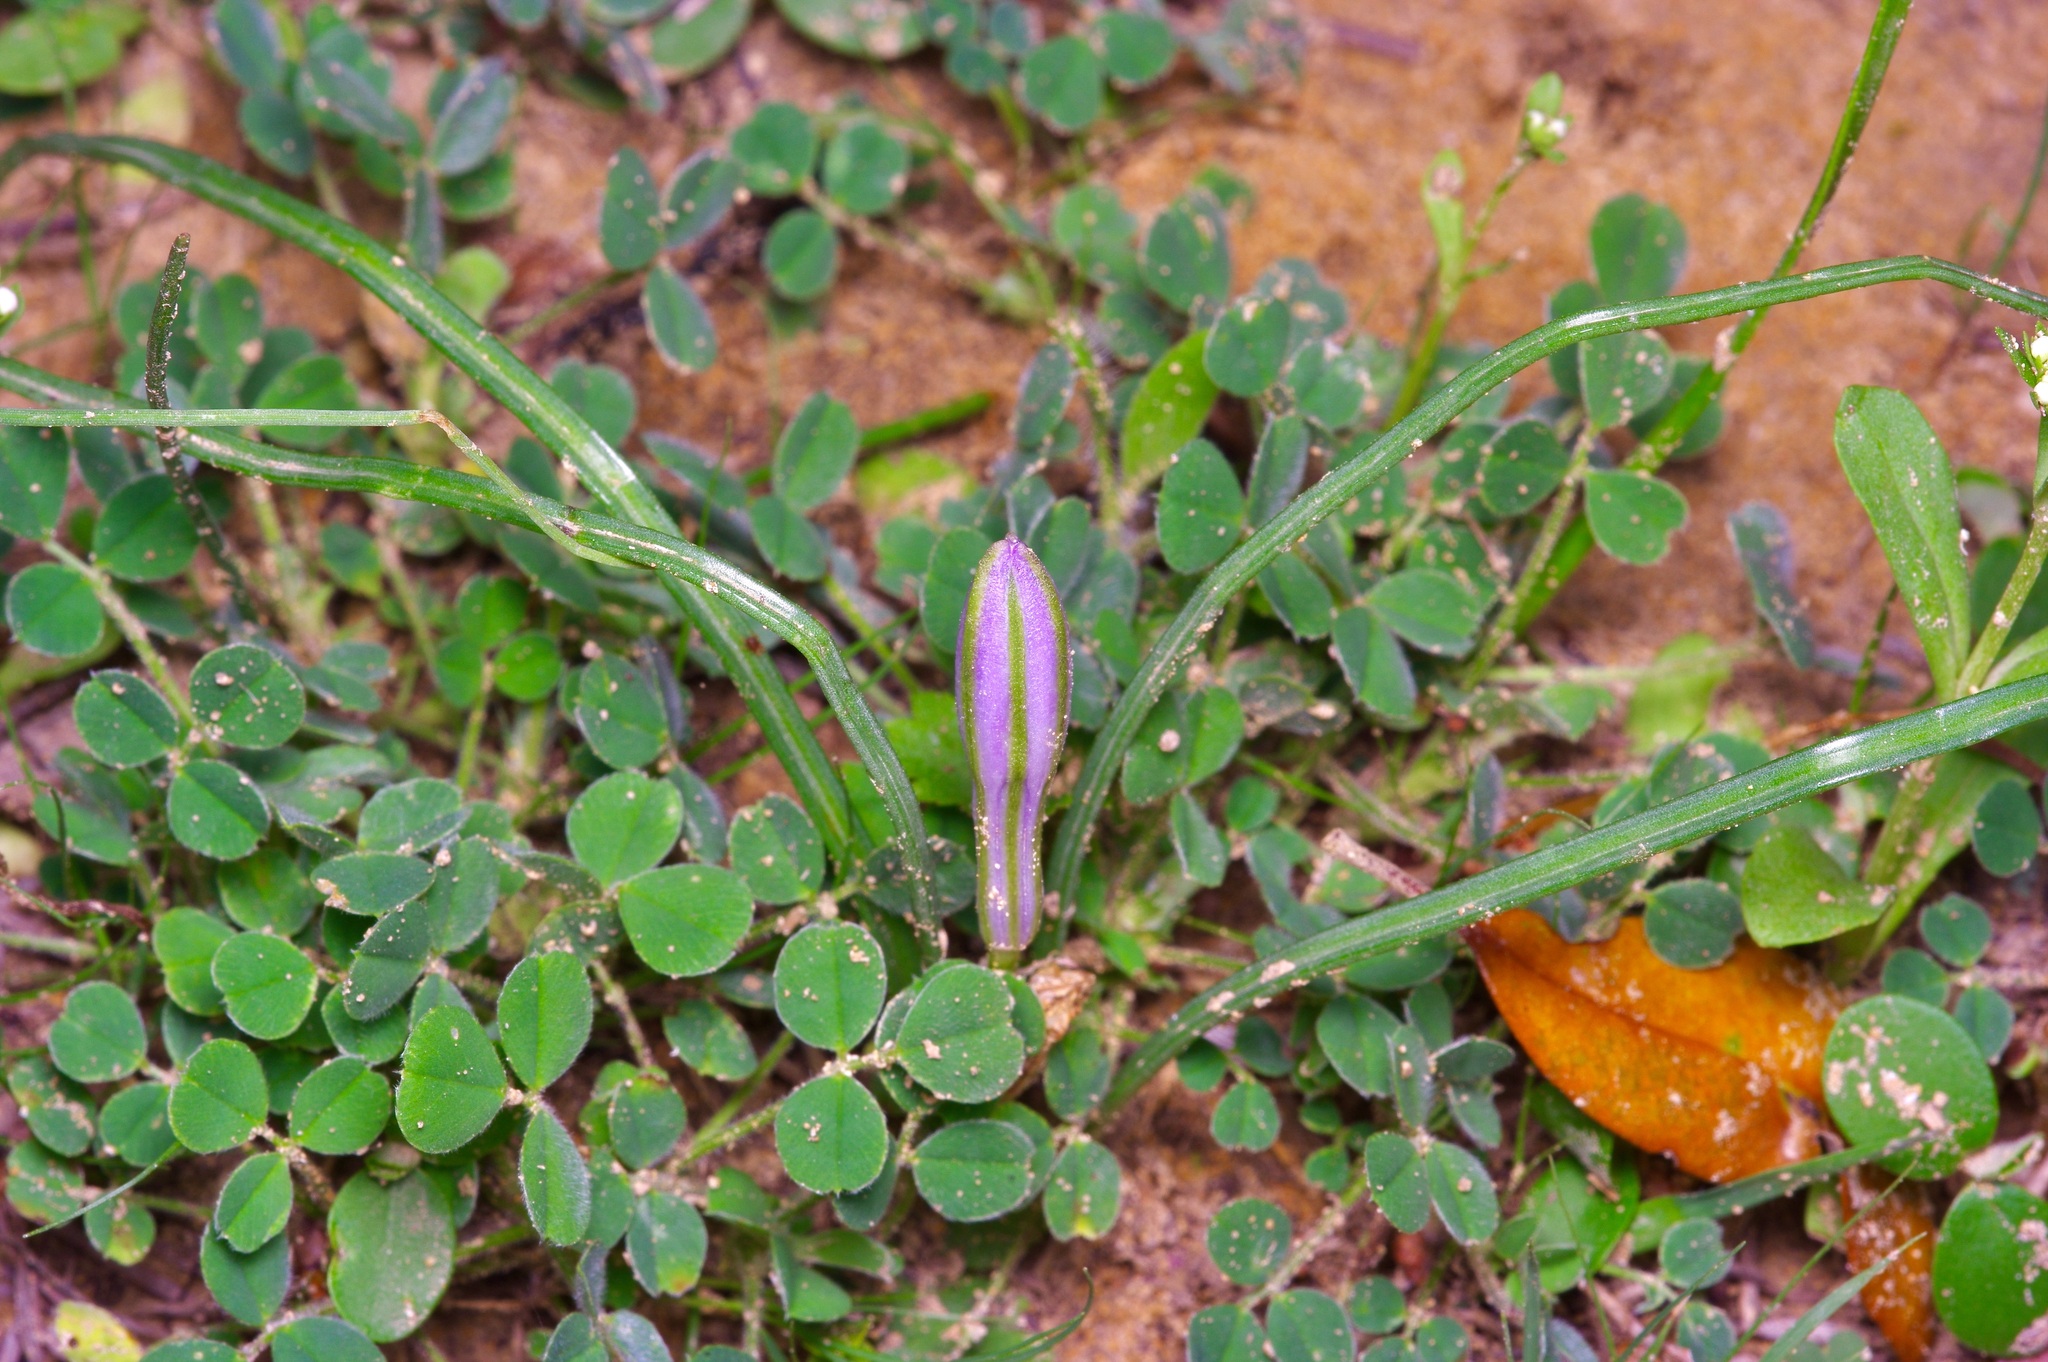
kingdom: Plantae
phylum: Tracheophyta
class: Liliopsida
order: Asparagales
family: Asparagaceae
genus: Androstephium
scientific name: Androstephium coeruleum
